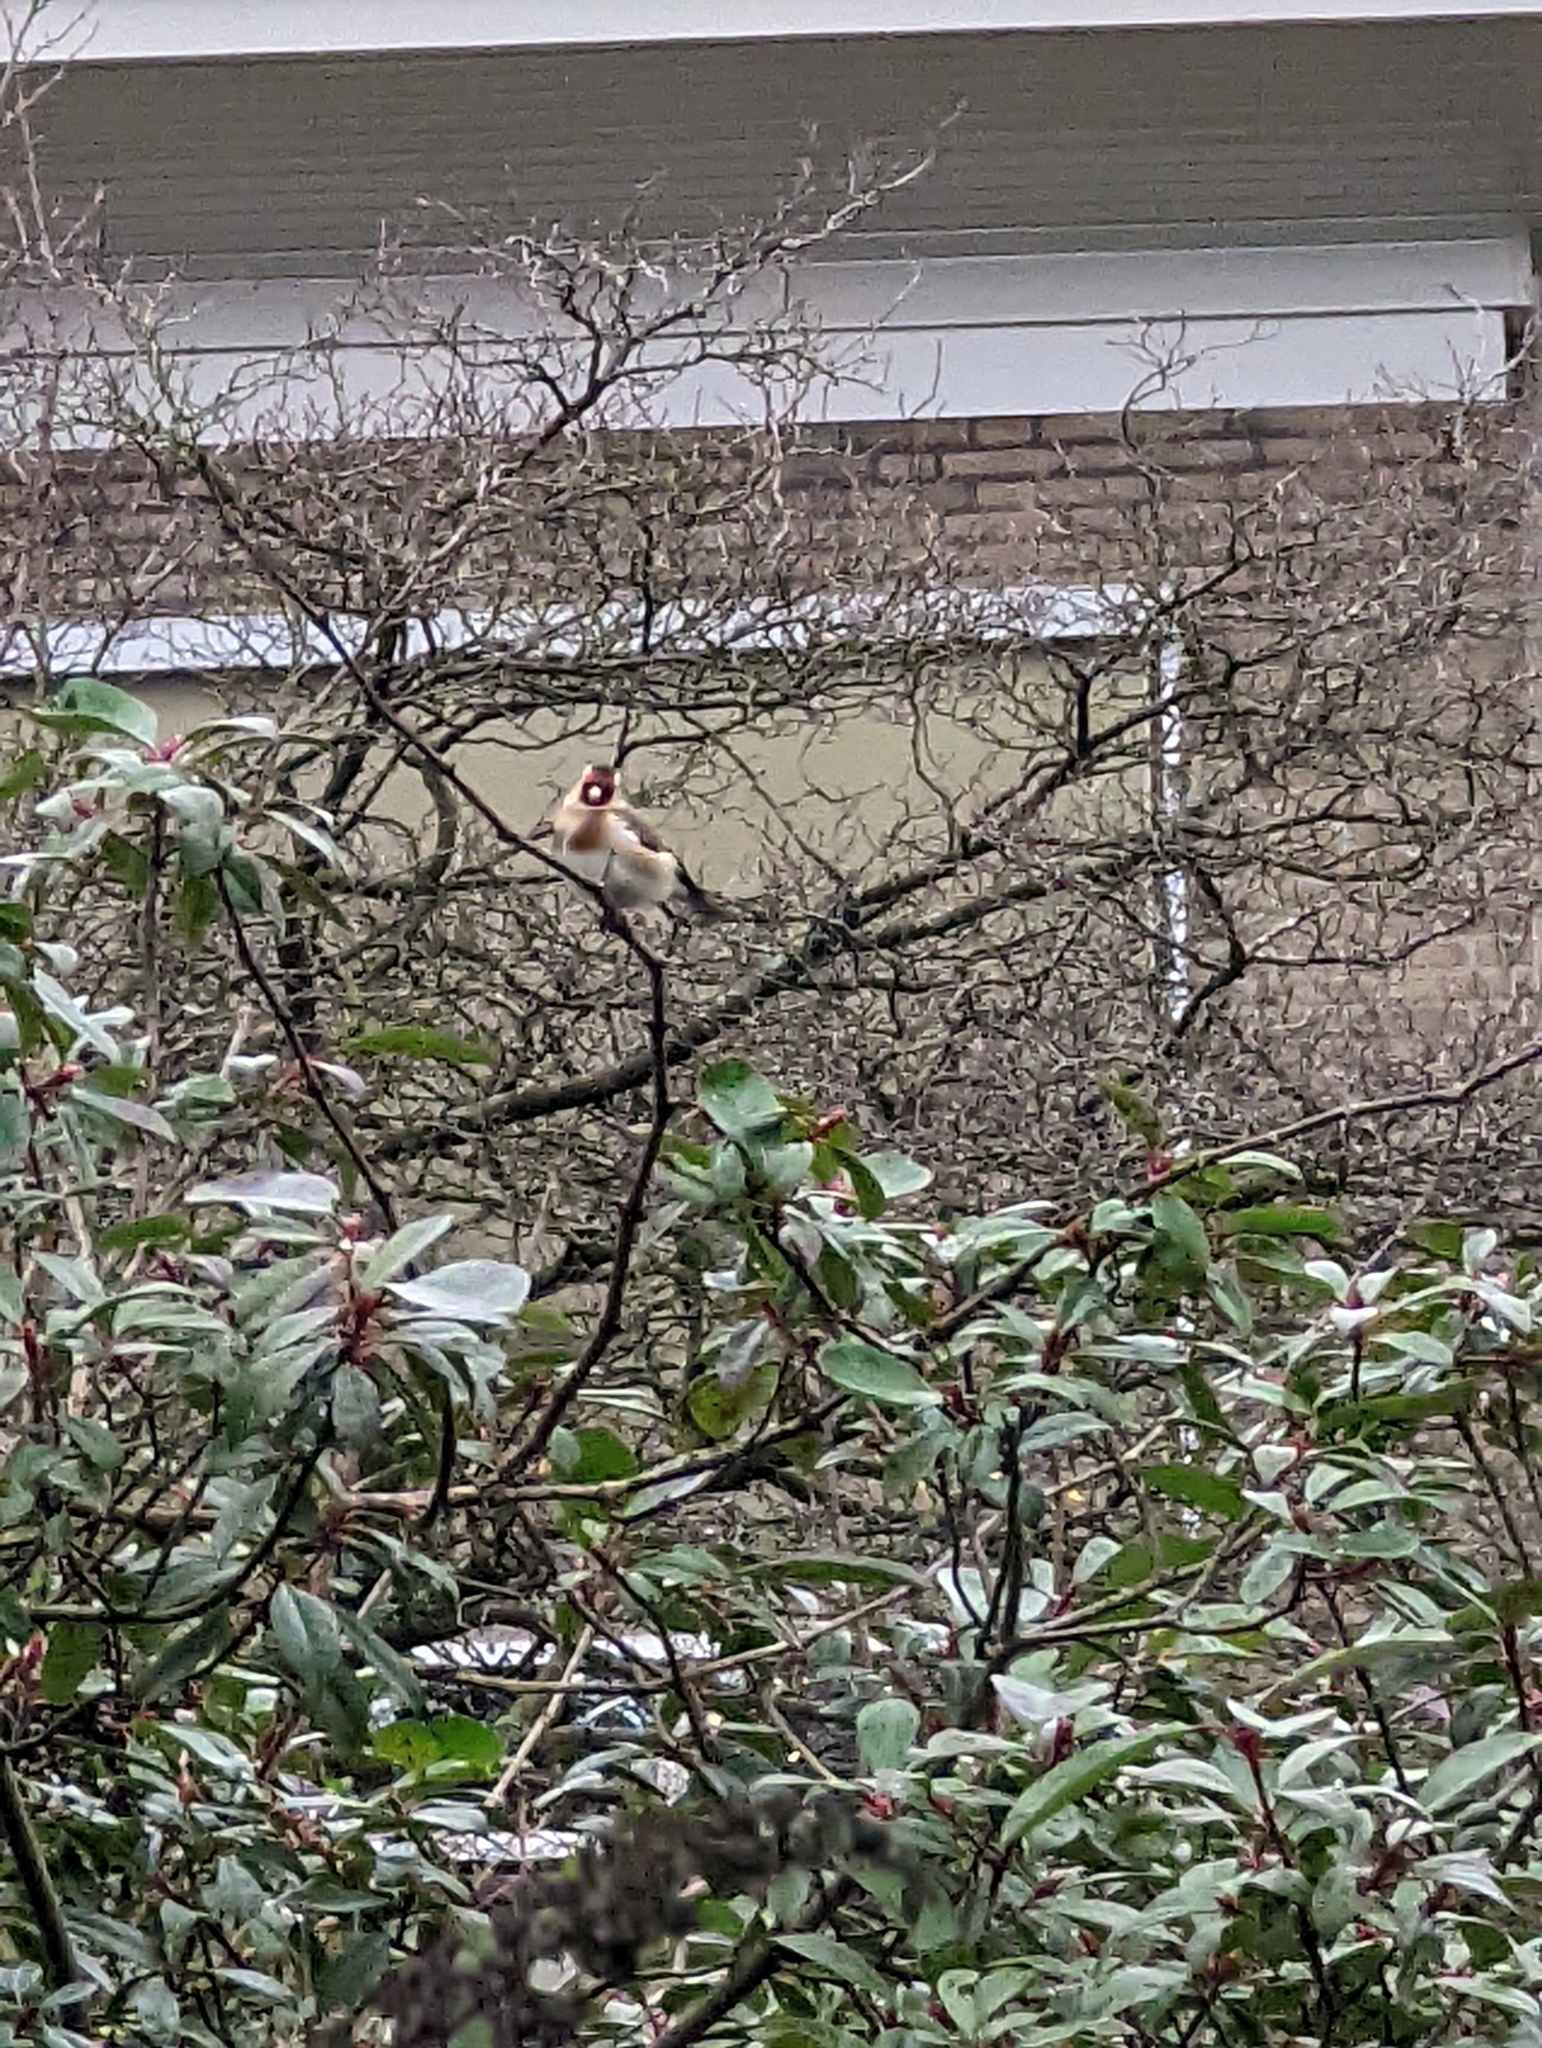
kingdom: Animalia
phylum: Chordata
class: Aves
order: Passeriformes
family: Fringillidae
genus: Carduelis
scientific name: Carduelis carduelis
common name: European goldfinch
